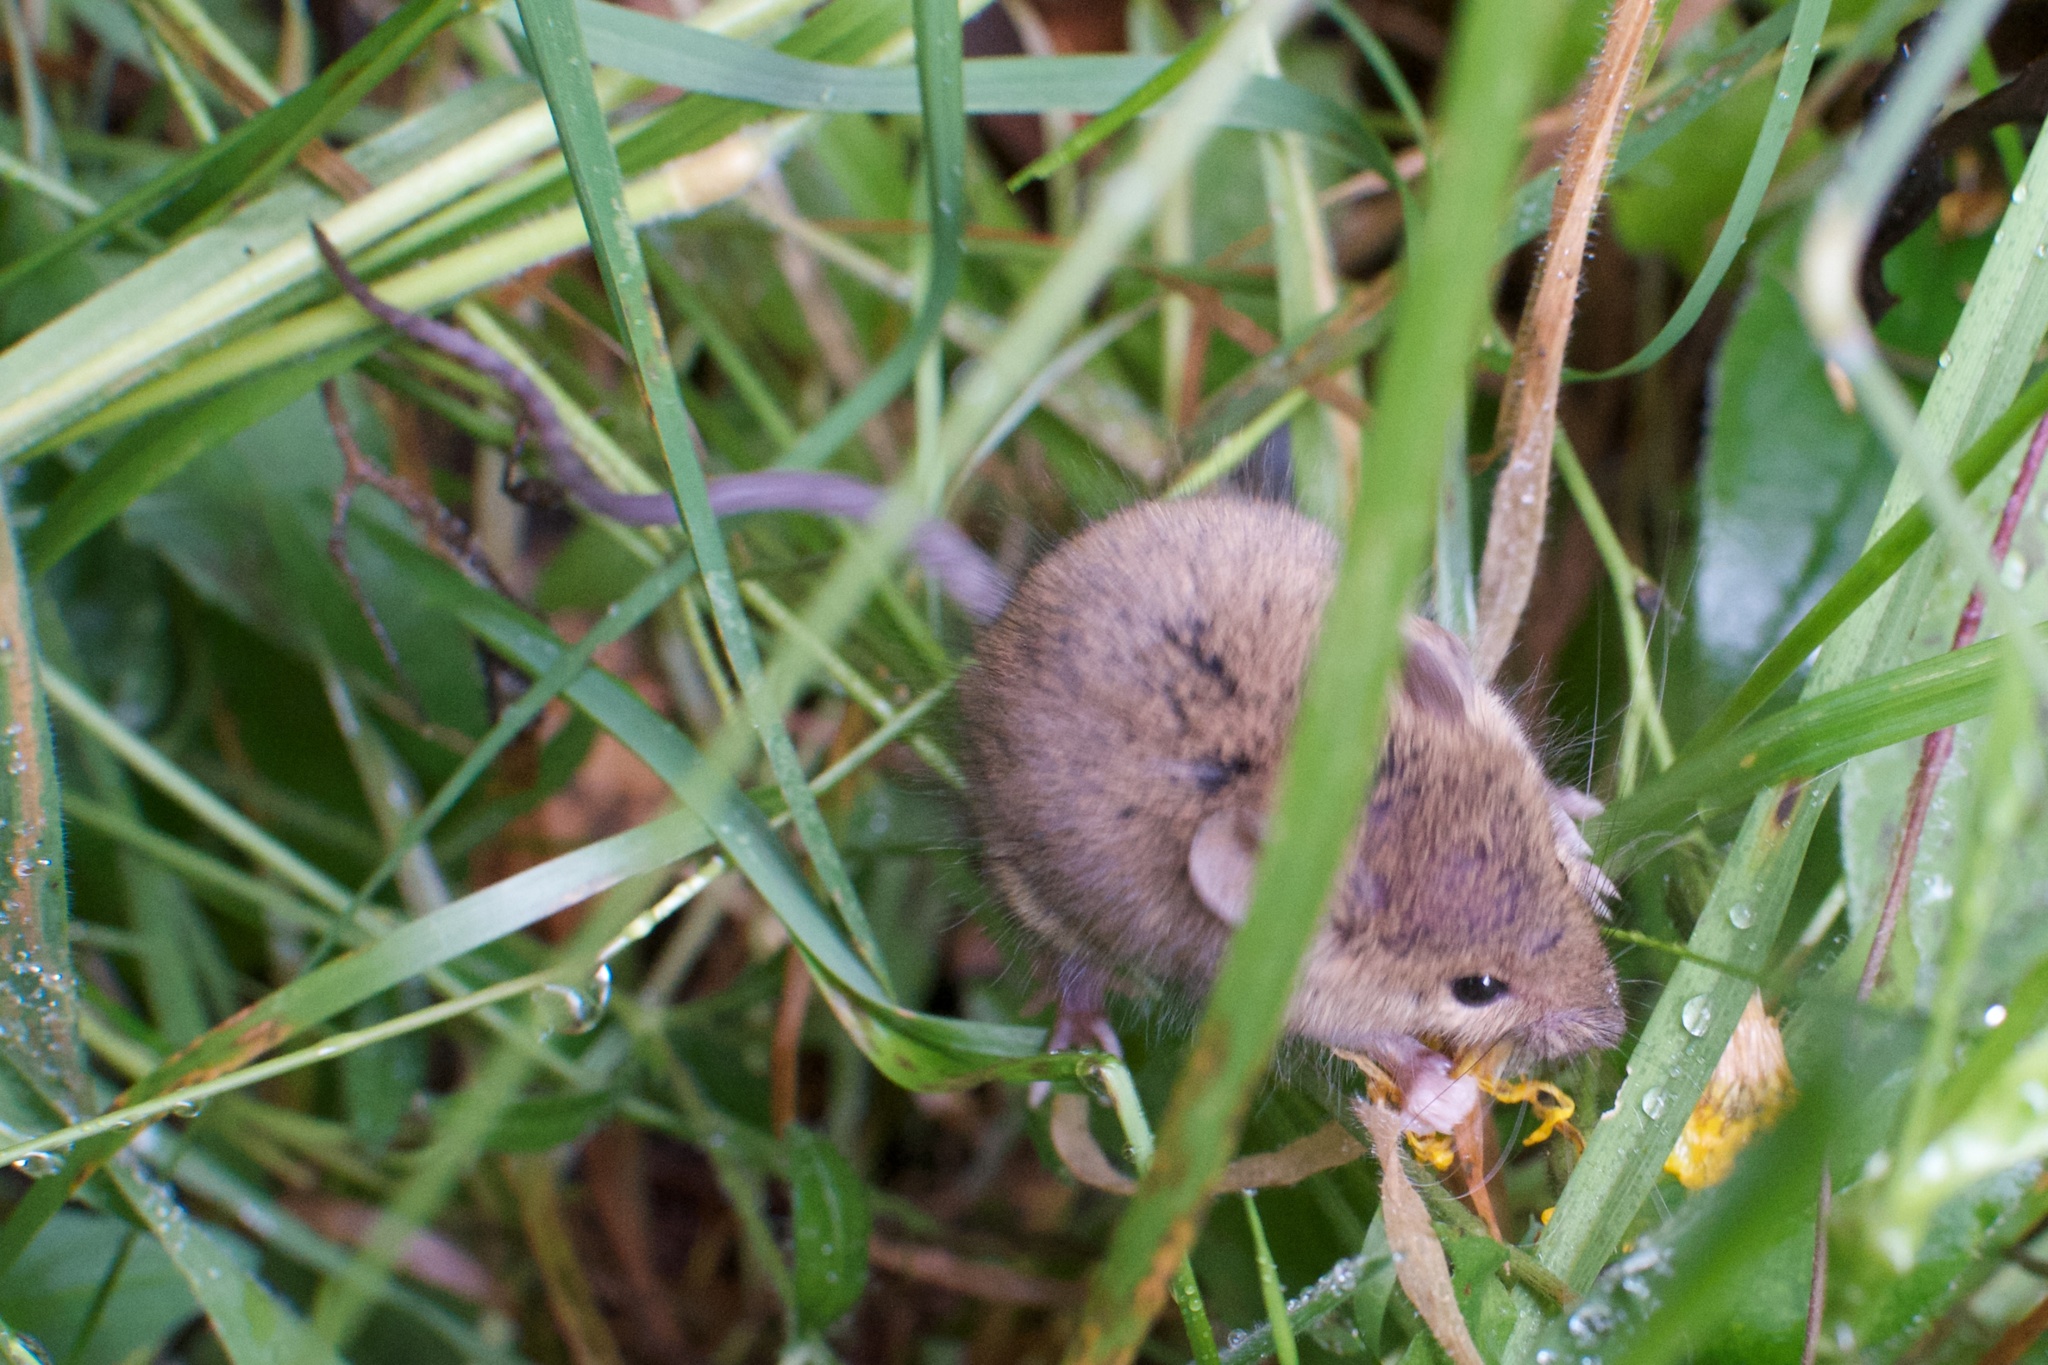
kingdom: Animalia
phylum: Chordata
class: Mammalia
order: Rodentia
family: Muridae
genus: Mus
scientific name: Mus musculus
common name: House mouse
